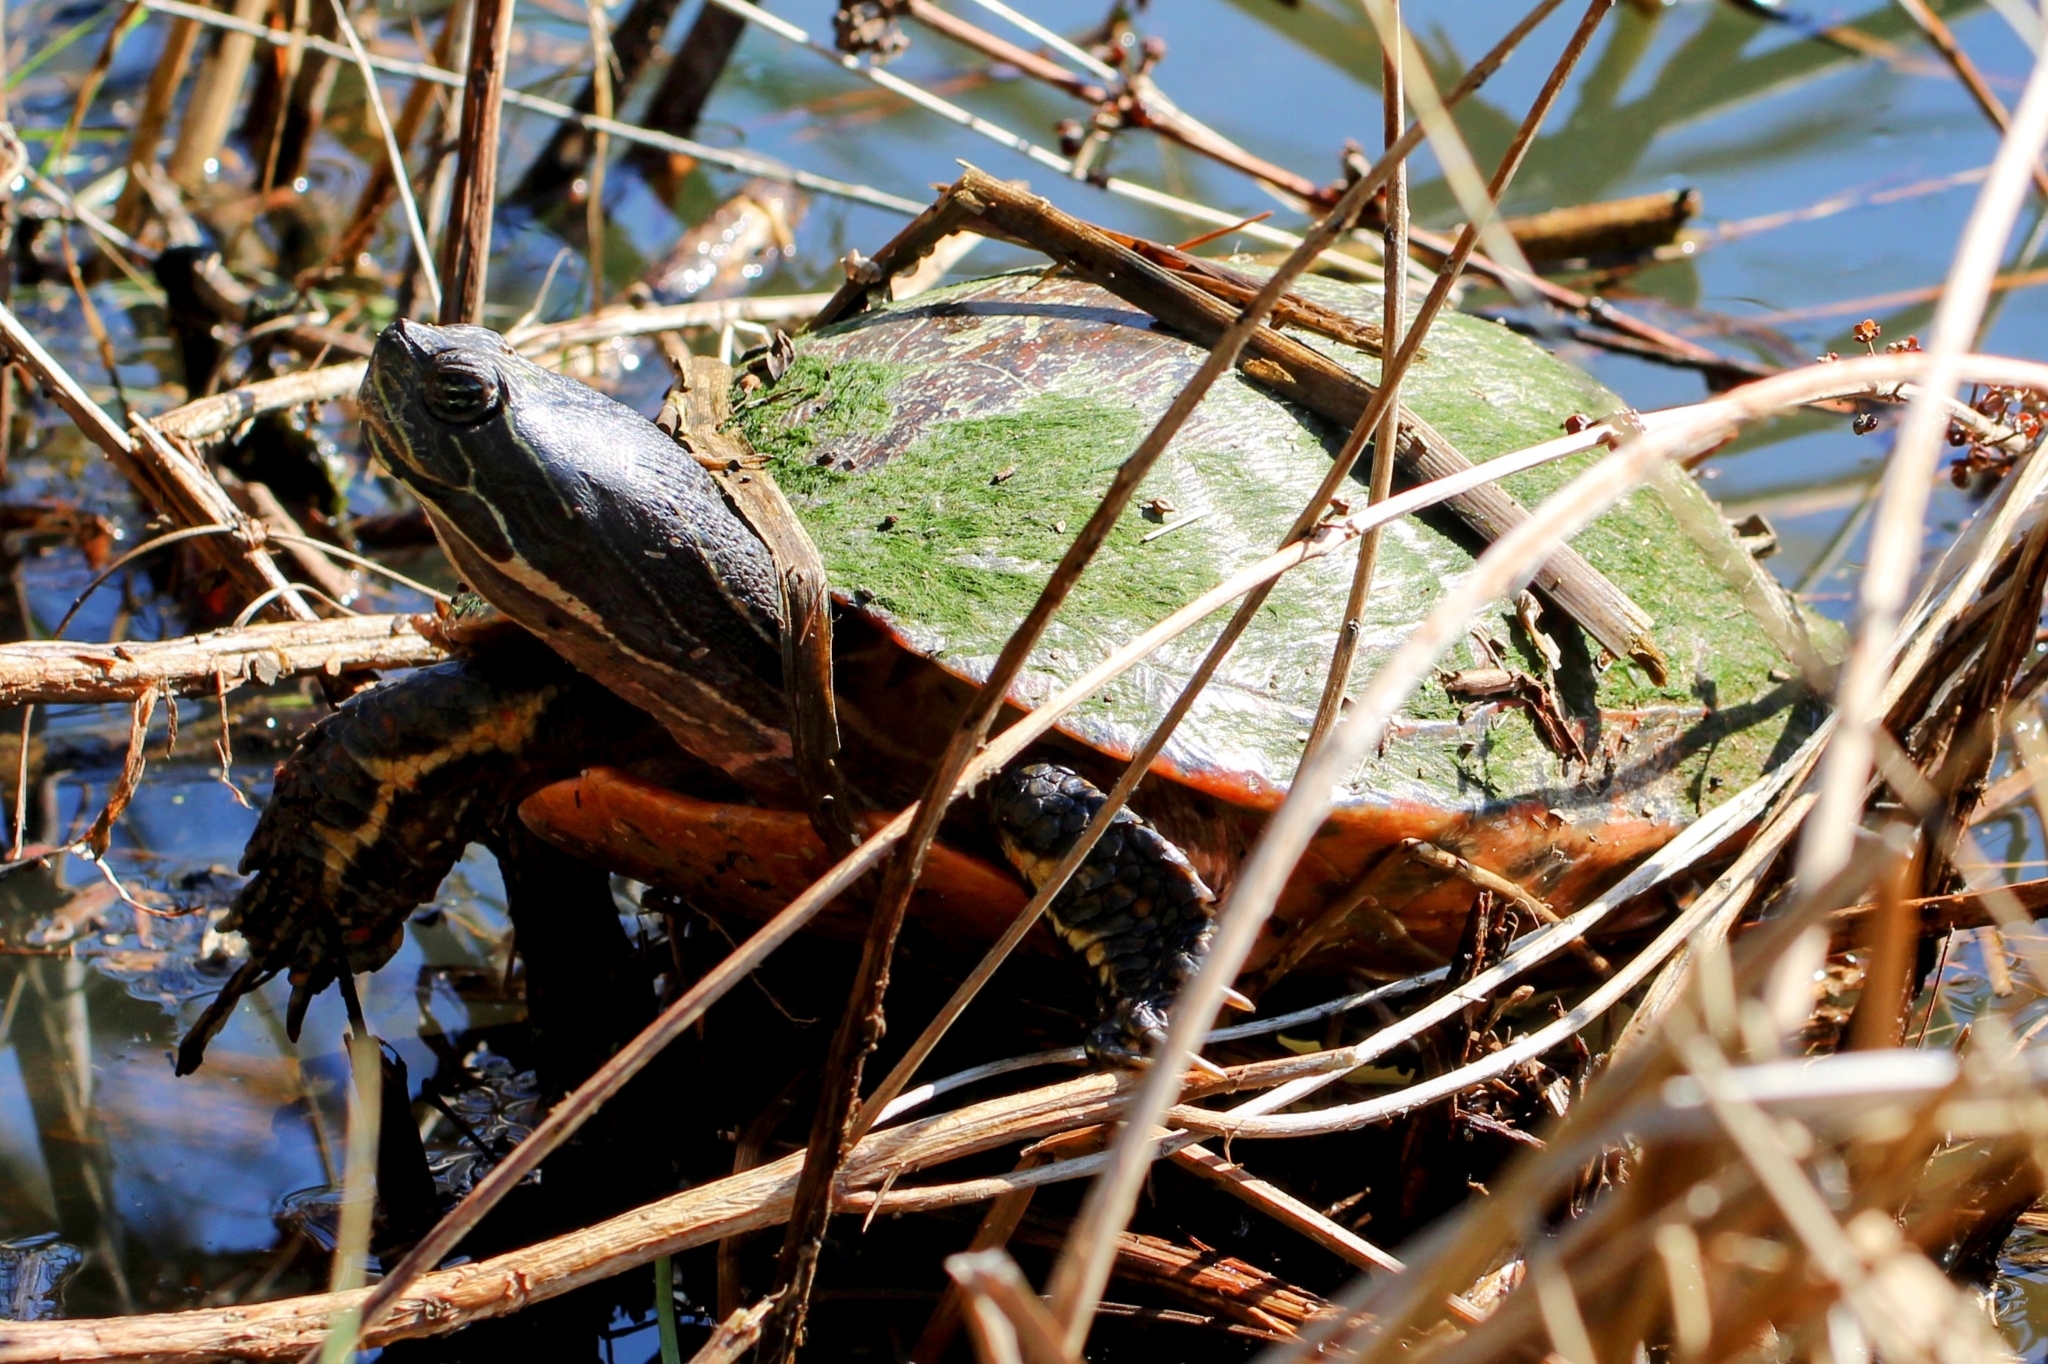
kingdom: Animalia
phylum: Chordata
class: Testudines
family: Emydidae
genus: Pseudemys
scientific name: Pseudemys rubriventris
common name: American red-bellied turtle
